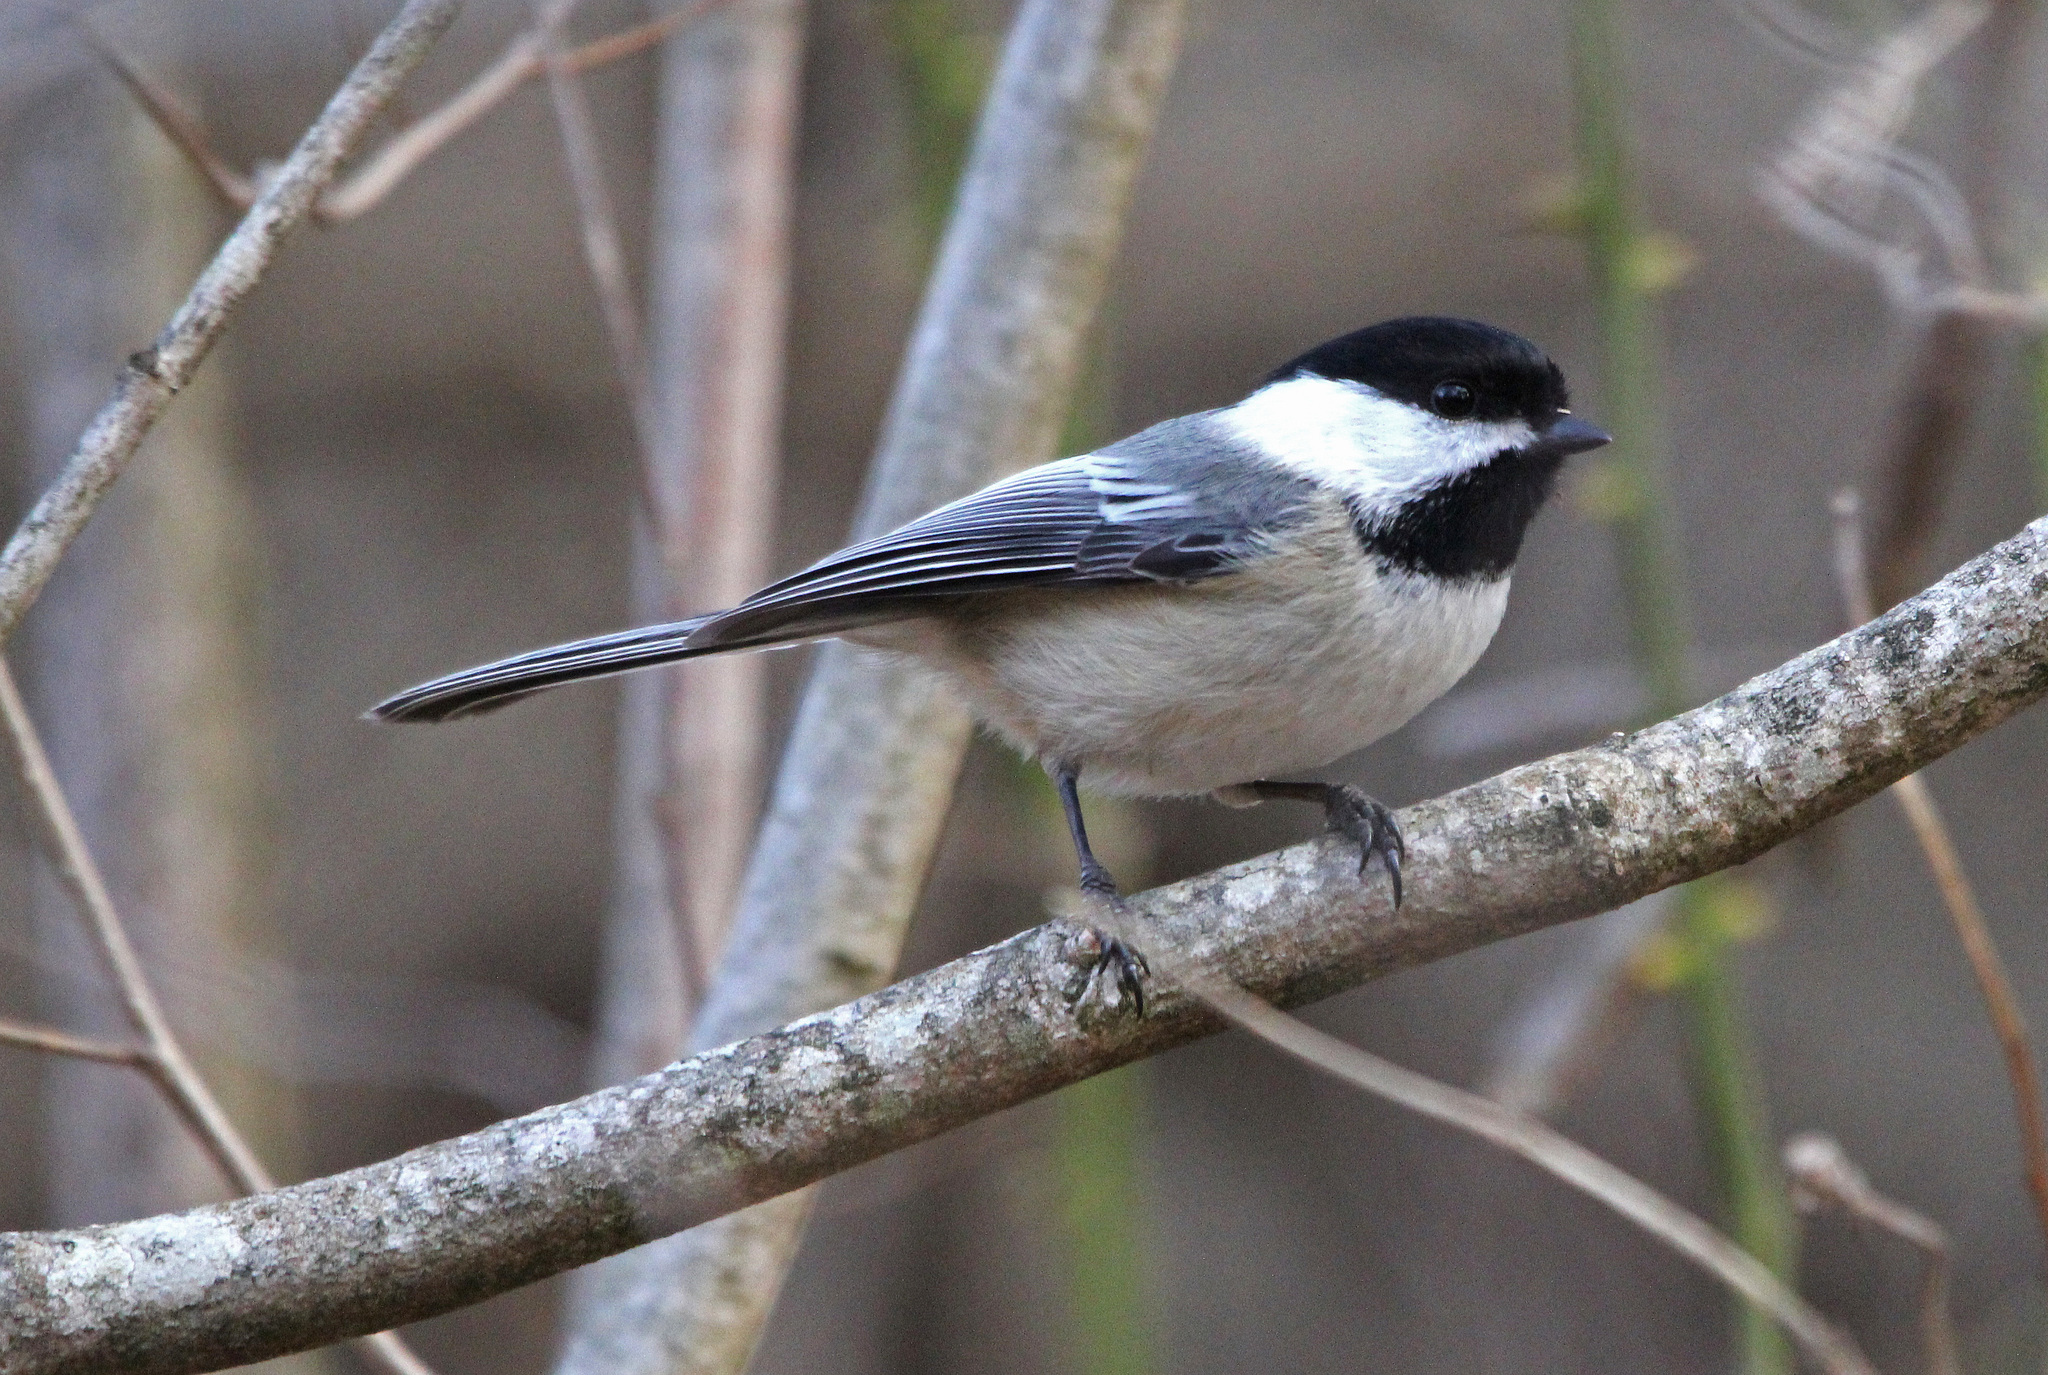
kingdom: Animalia
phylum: Chordata
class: Aves
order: Passeriformes
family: Paridae
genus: Poecile
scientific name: Poecile atricapillus
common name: Black-capped chickadee
